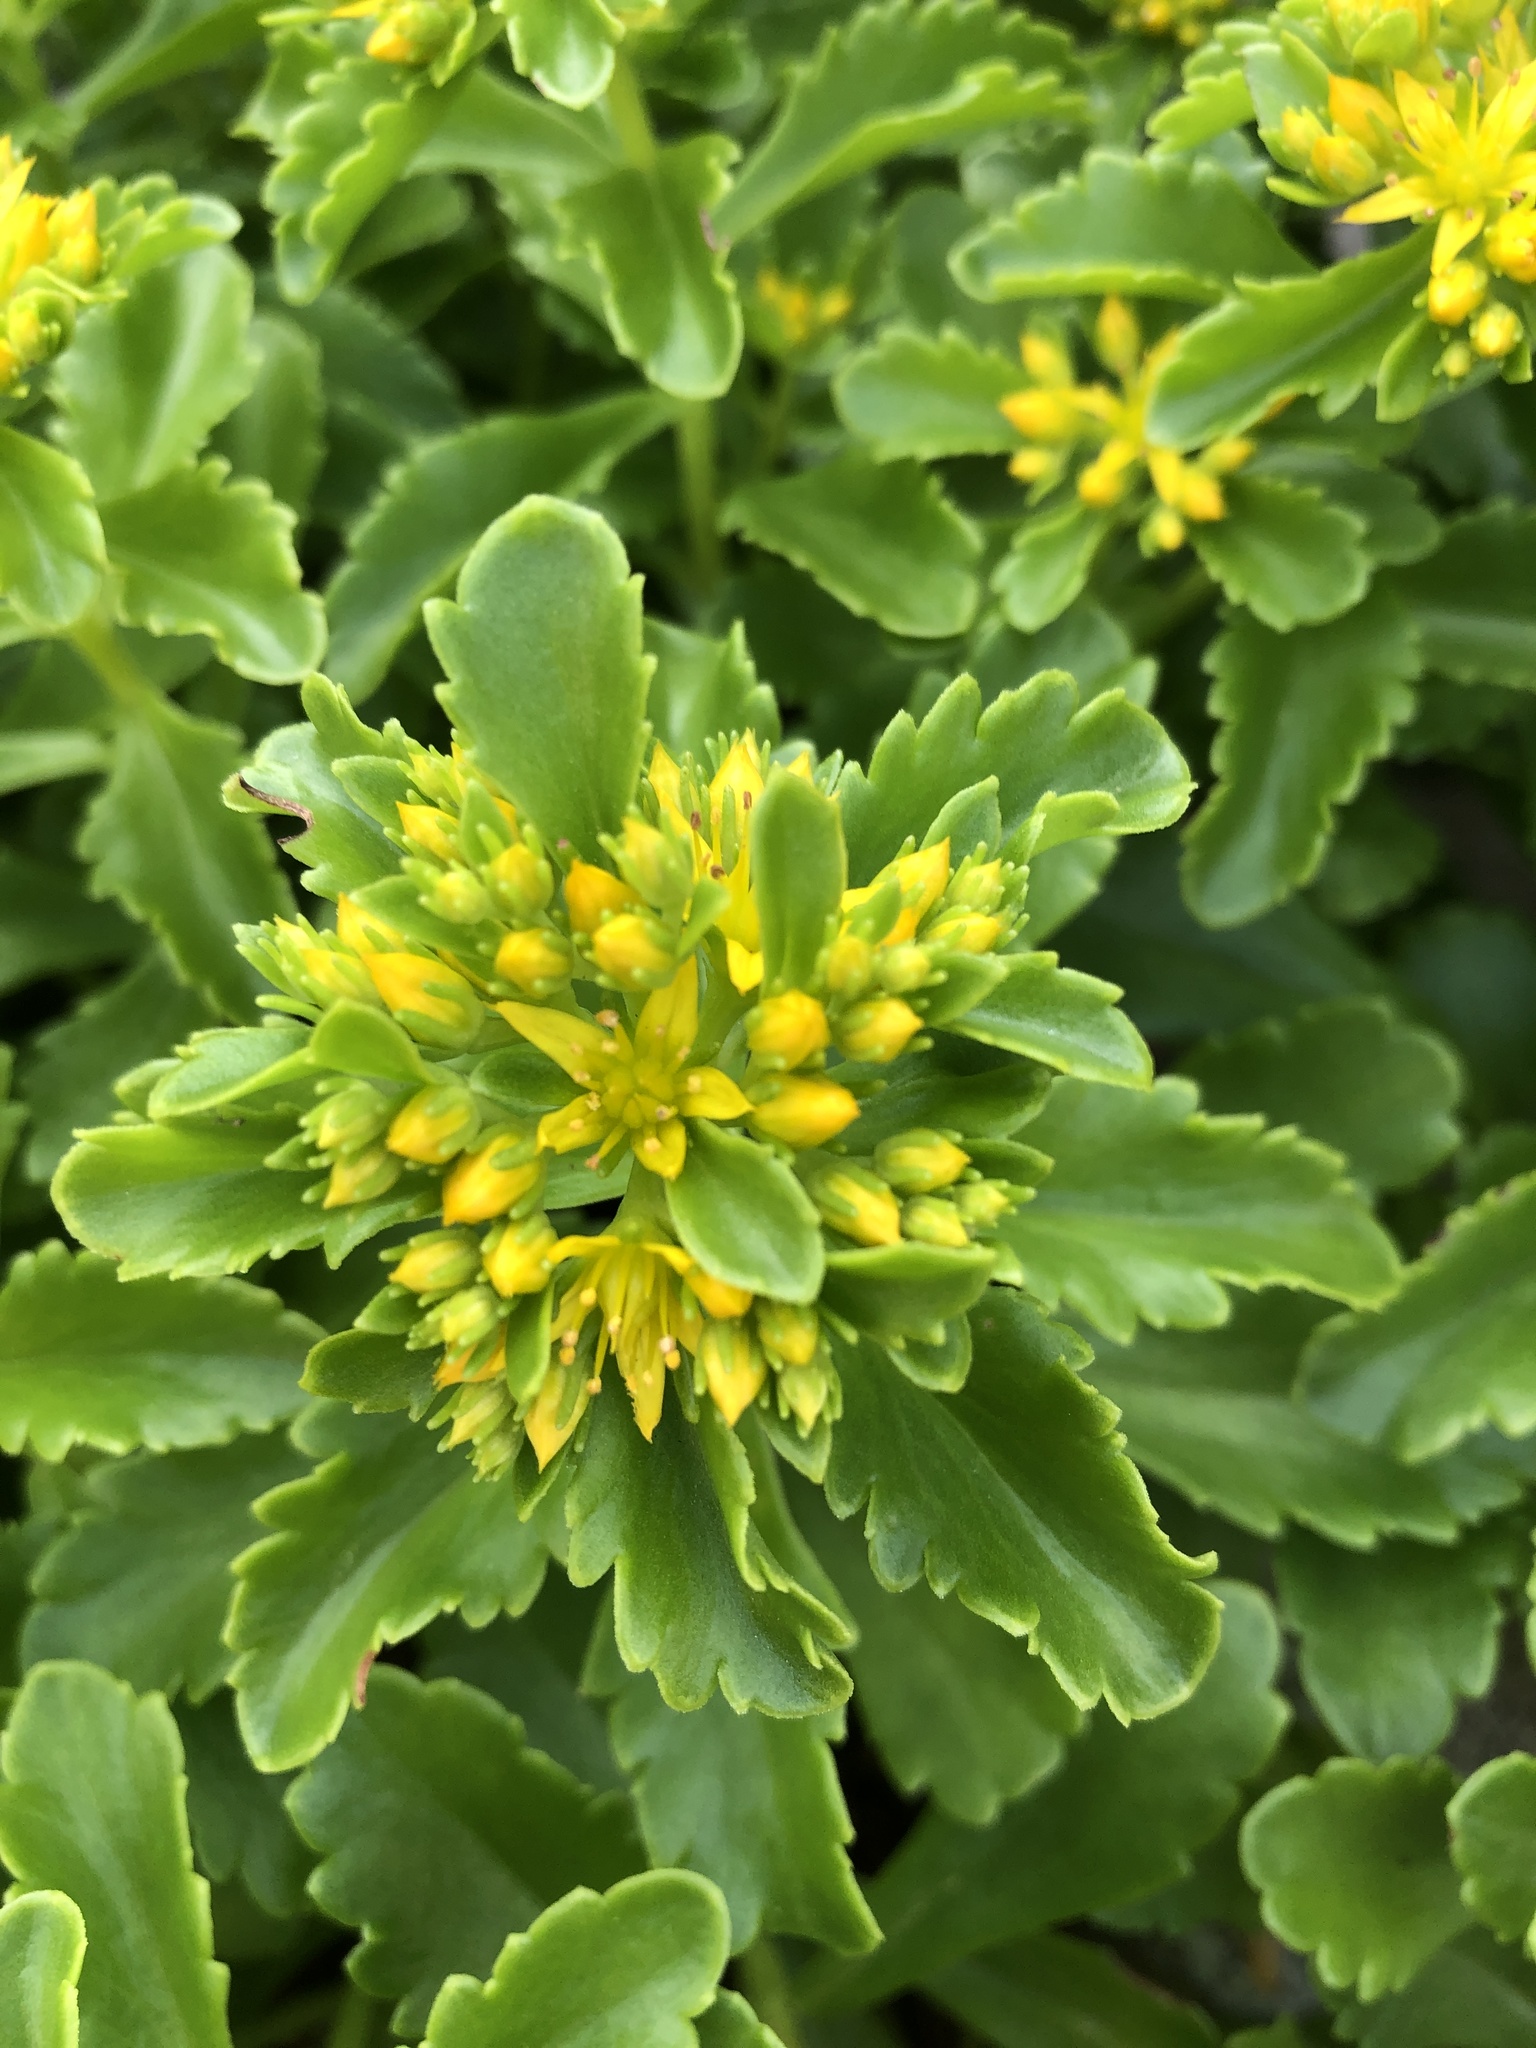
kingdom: Plantae
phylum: Tracheophyta
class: Magnoliopsida
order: Saxifragales
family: Crassulaceae
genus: Phedimus
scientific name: Phedimus ellacombeanus
